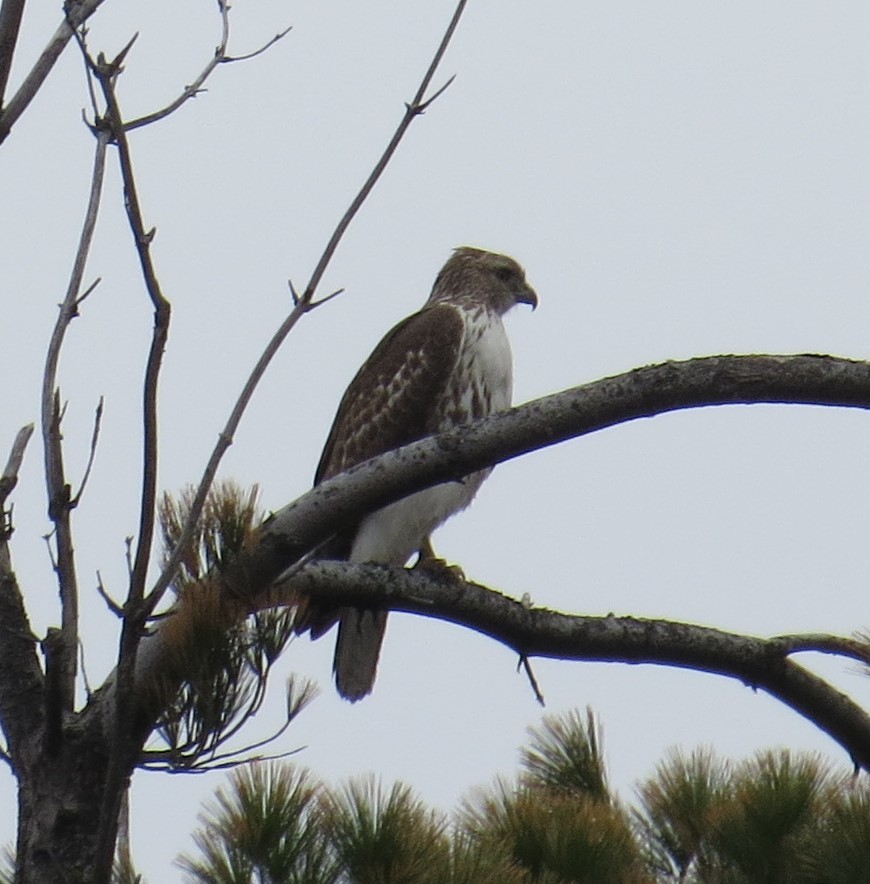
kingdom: Animalia
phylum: Chordata
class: Aves
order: Accipitriformes
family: Accipitridae
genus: Buteo
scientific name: Buteo jamaicensis
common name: Red-tailed hawk
